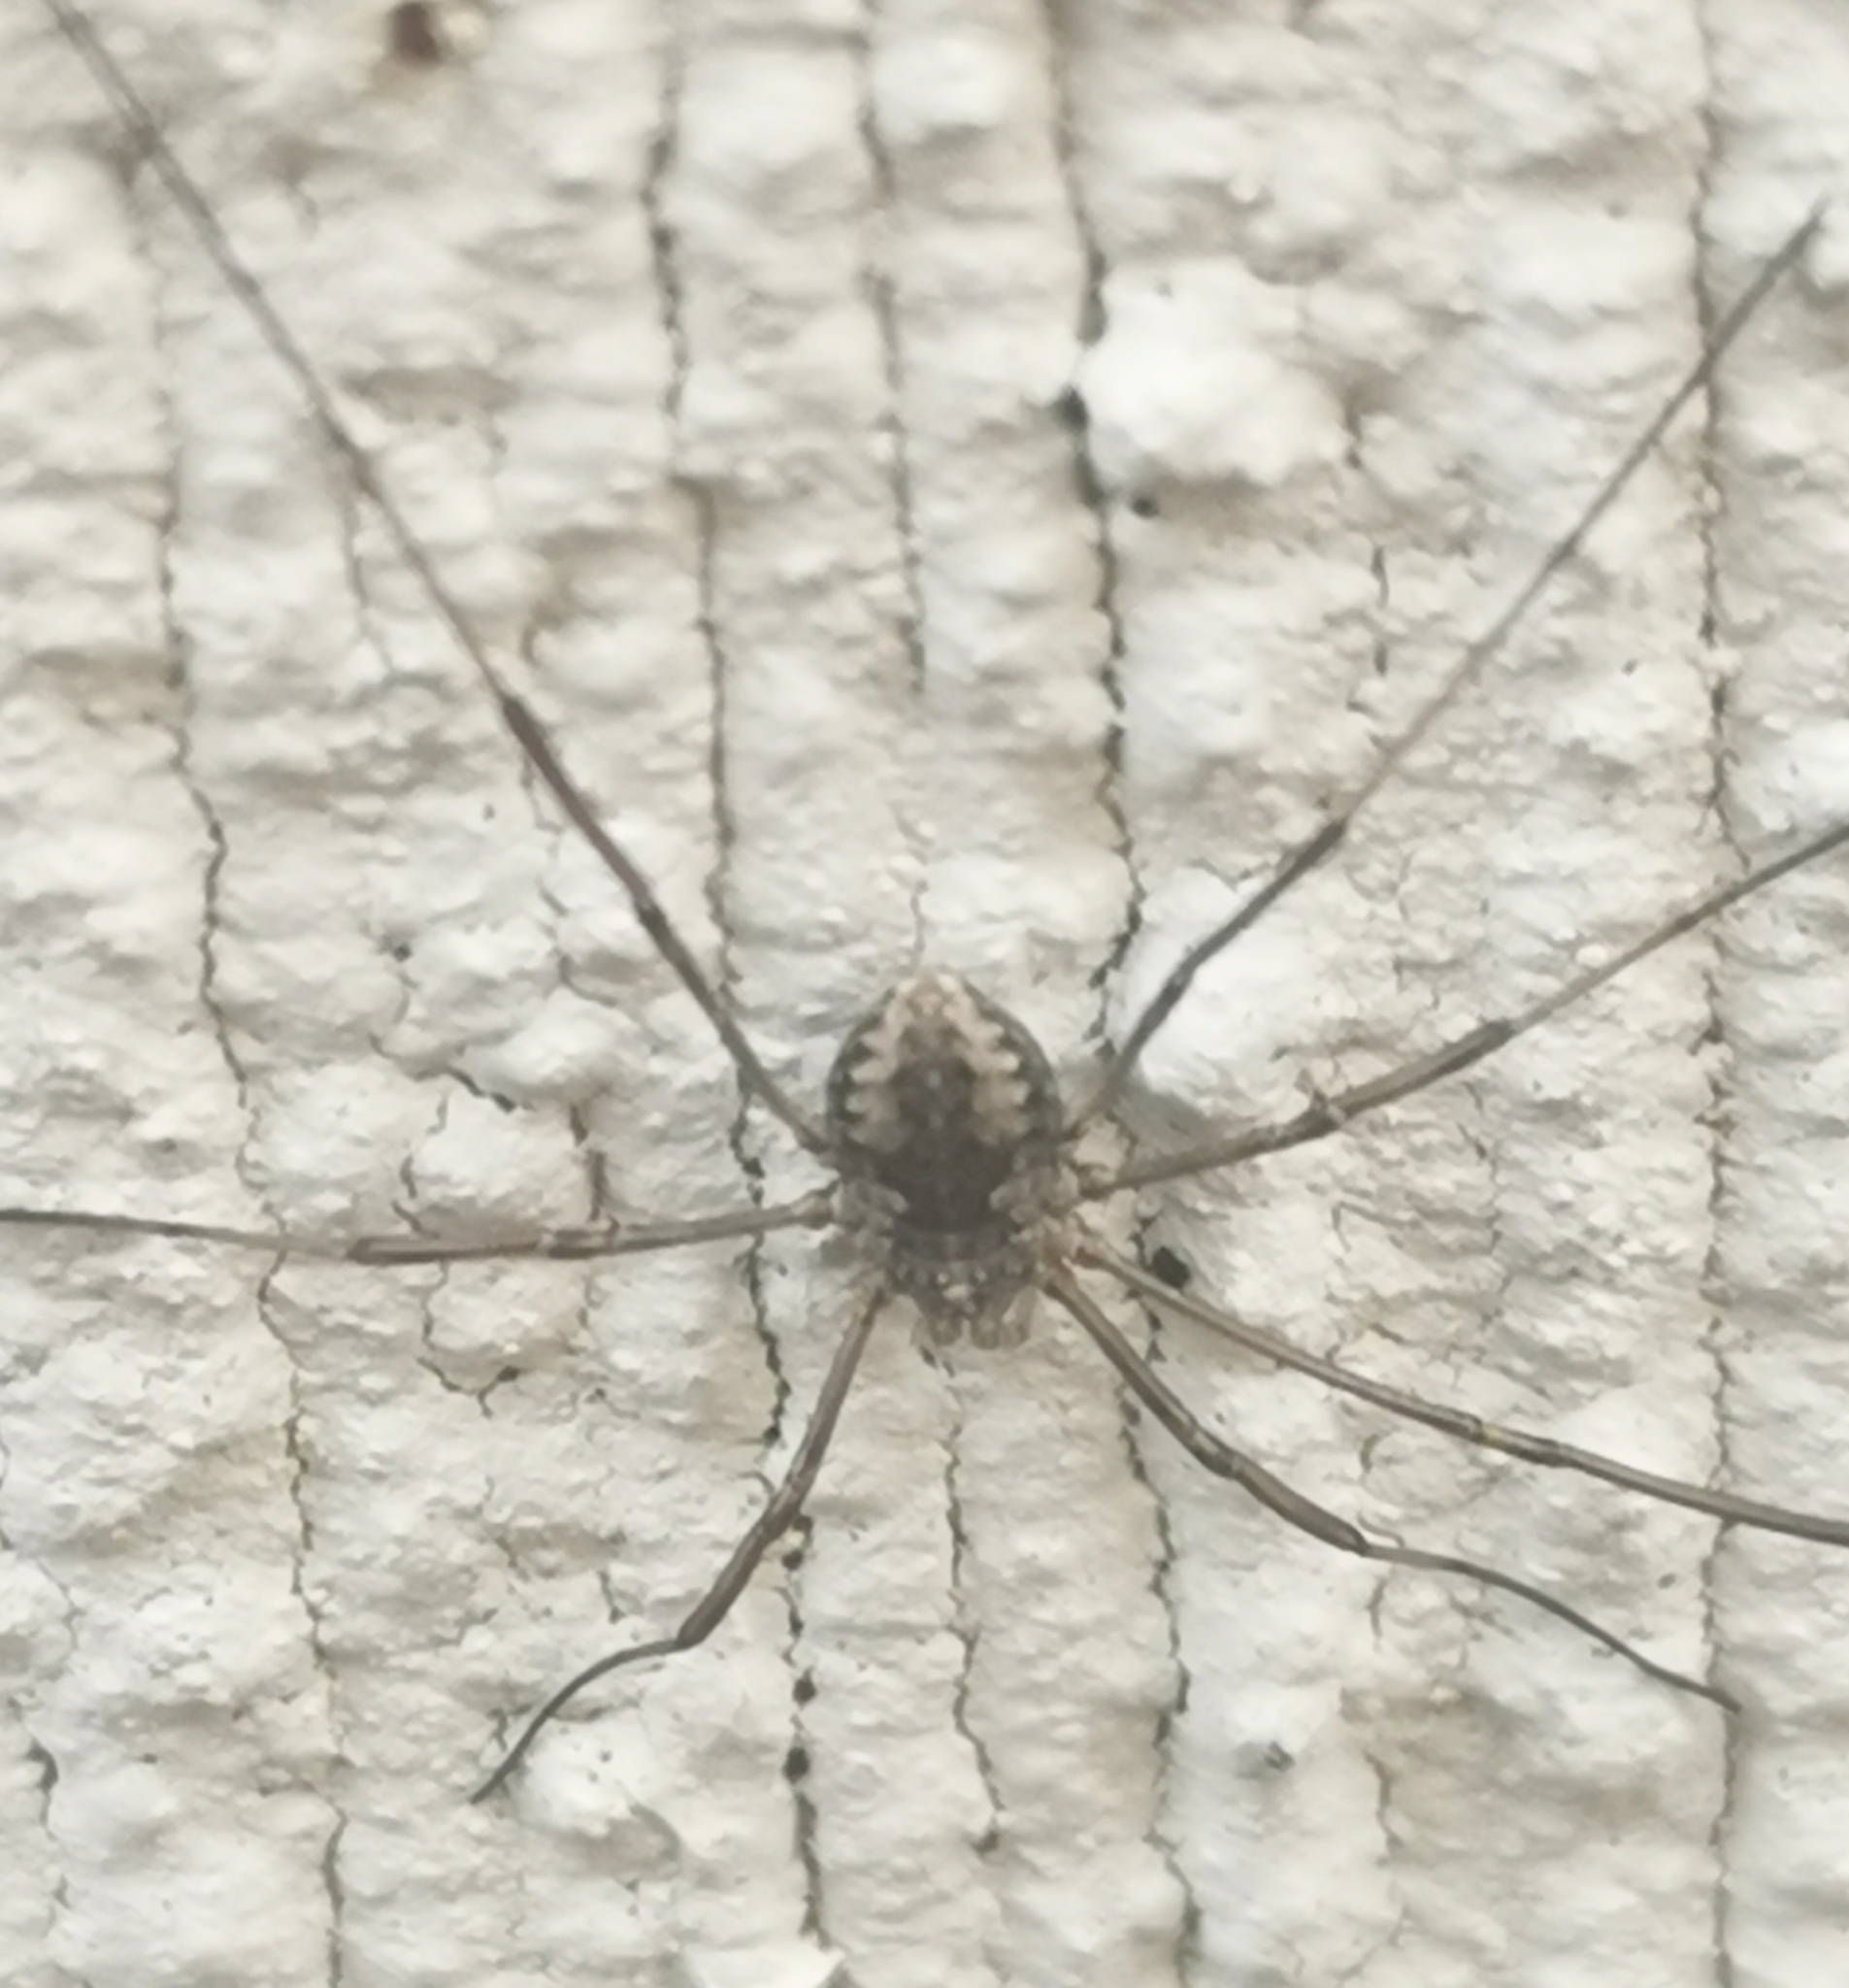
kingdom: Animalia
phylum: Arthropoda
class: Arachnida
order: Opiliones
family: Phalangiidae
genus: Phalangium
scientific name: Phalangium opilio
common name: Daddy longleg
